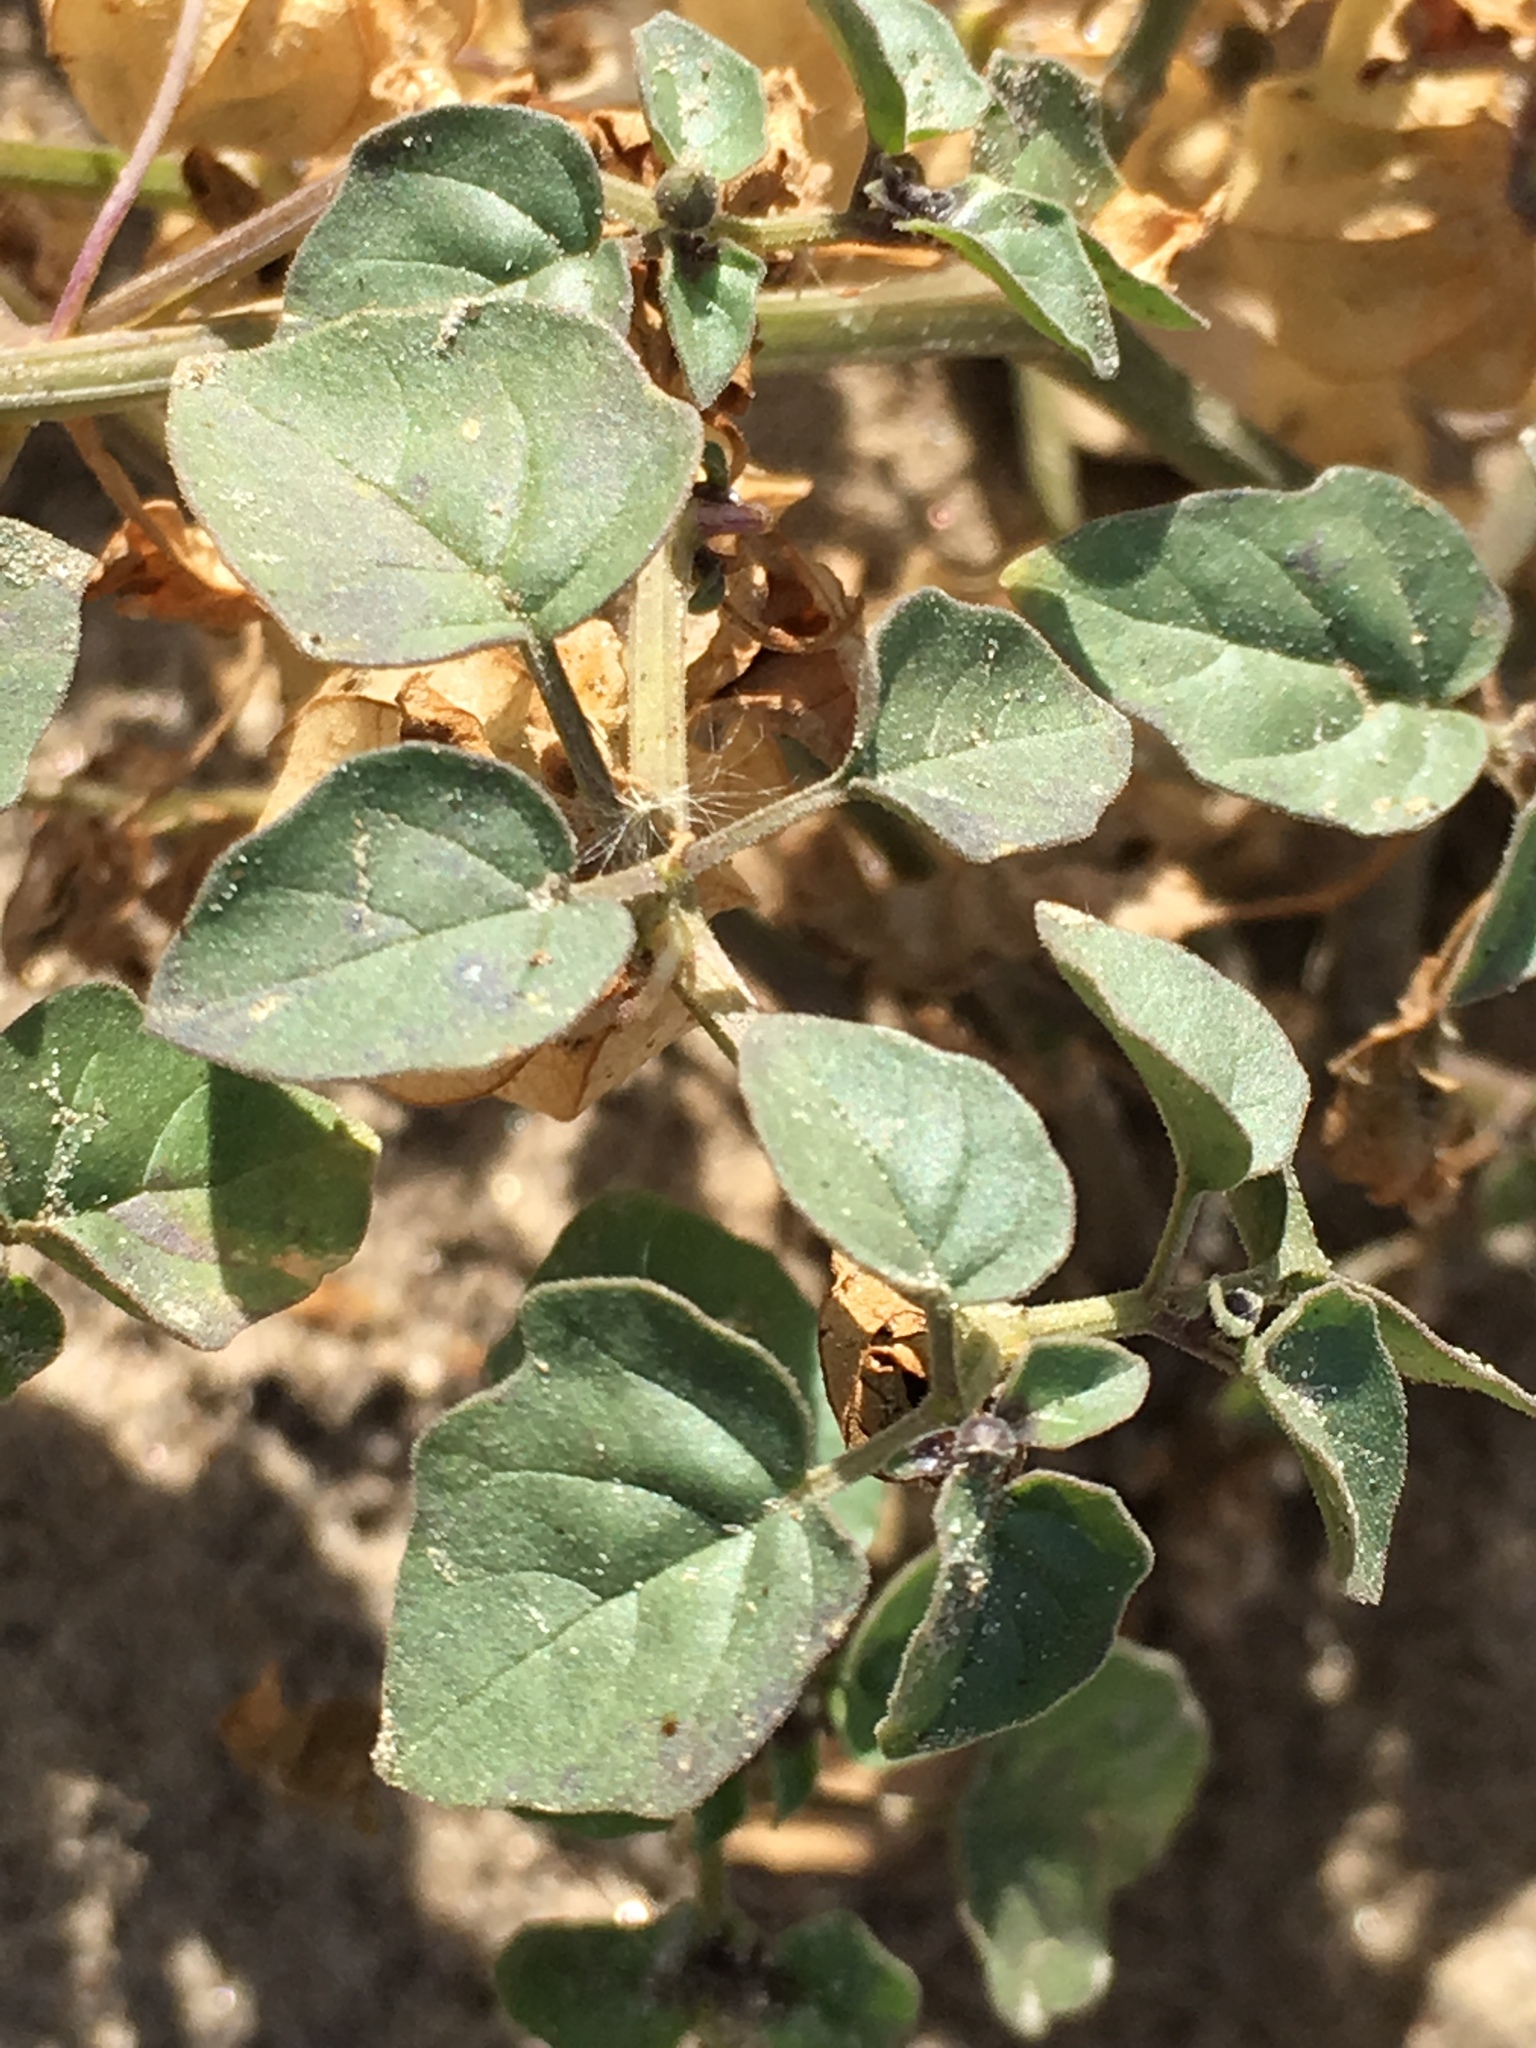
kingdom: Plantae
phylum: Tracheophyta
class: Magnoliopsida
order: Solanales
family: Solanaceae
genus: Physalis
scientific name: Physalis crassifolia
